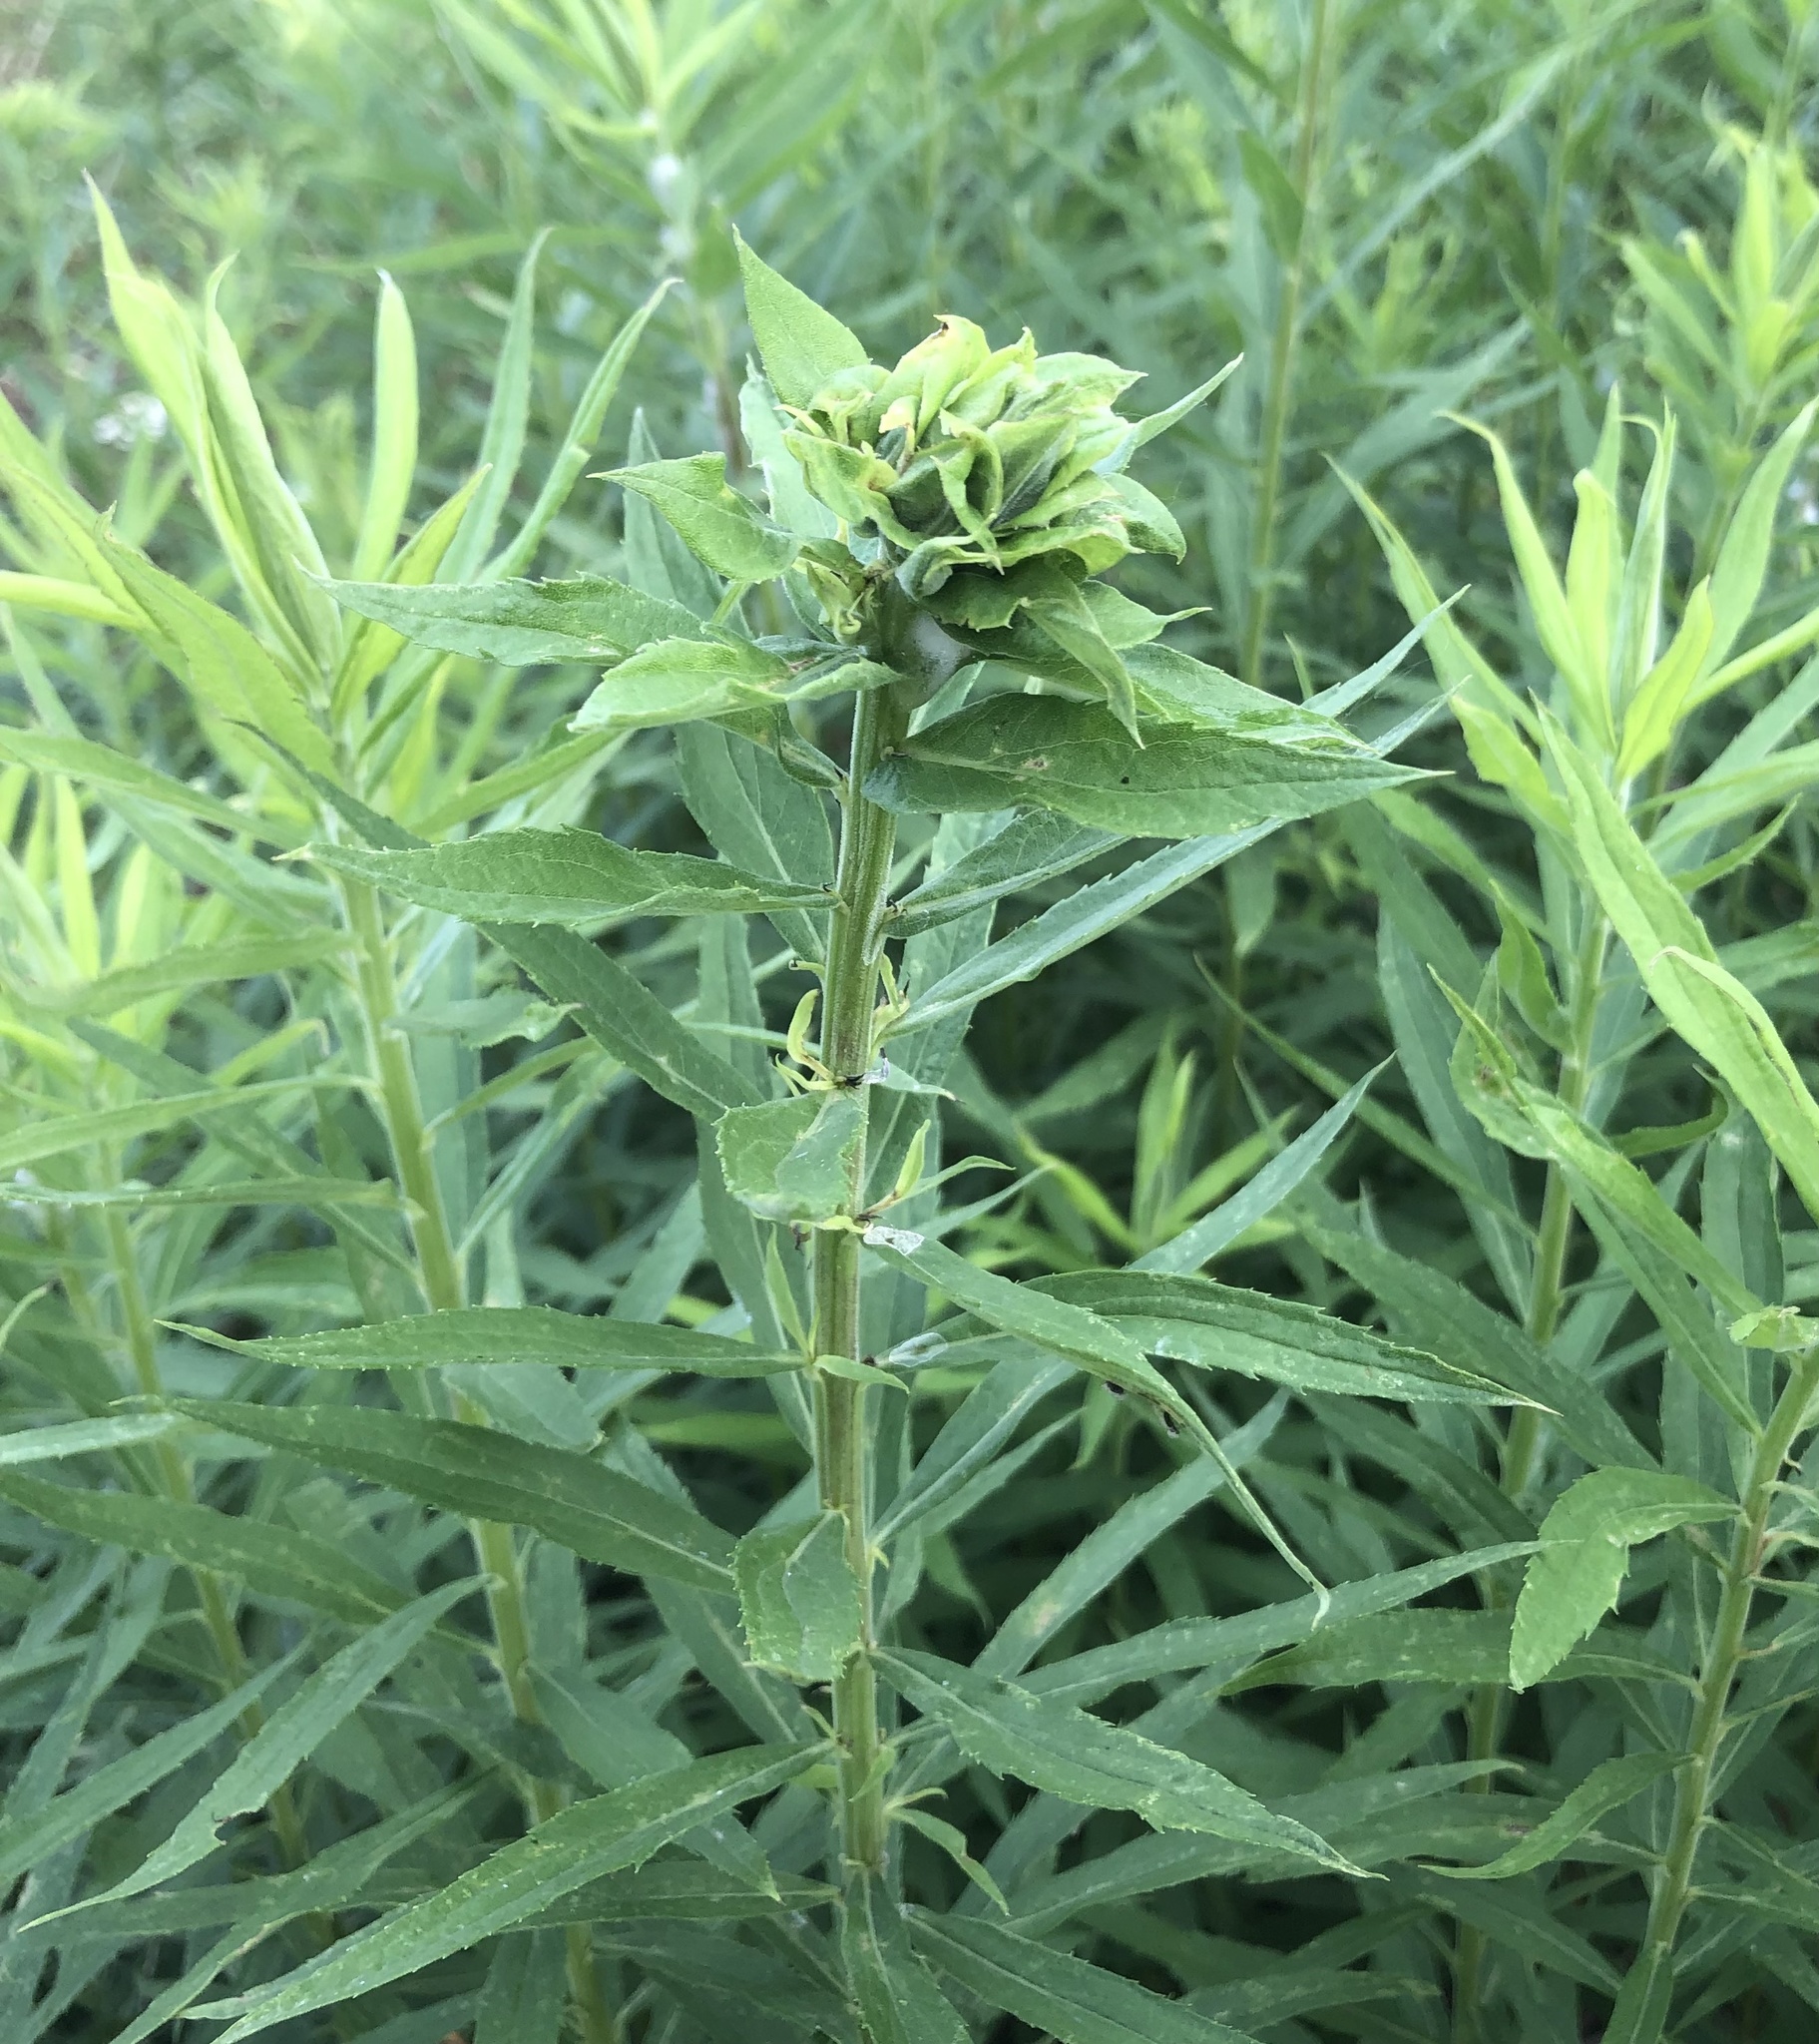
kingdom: Animalia
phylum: Arthropoda
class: Insecta
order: Diptera
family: Cecidomyiidae
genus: Rhopalomyia
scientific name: Rhopalomyia solidaginis
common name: Goldenrod bunch gall midge
